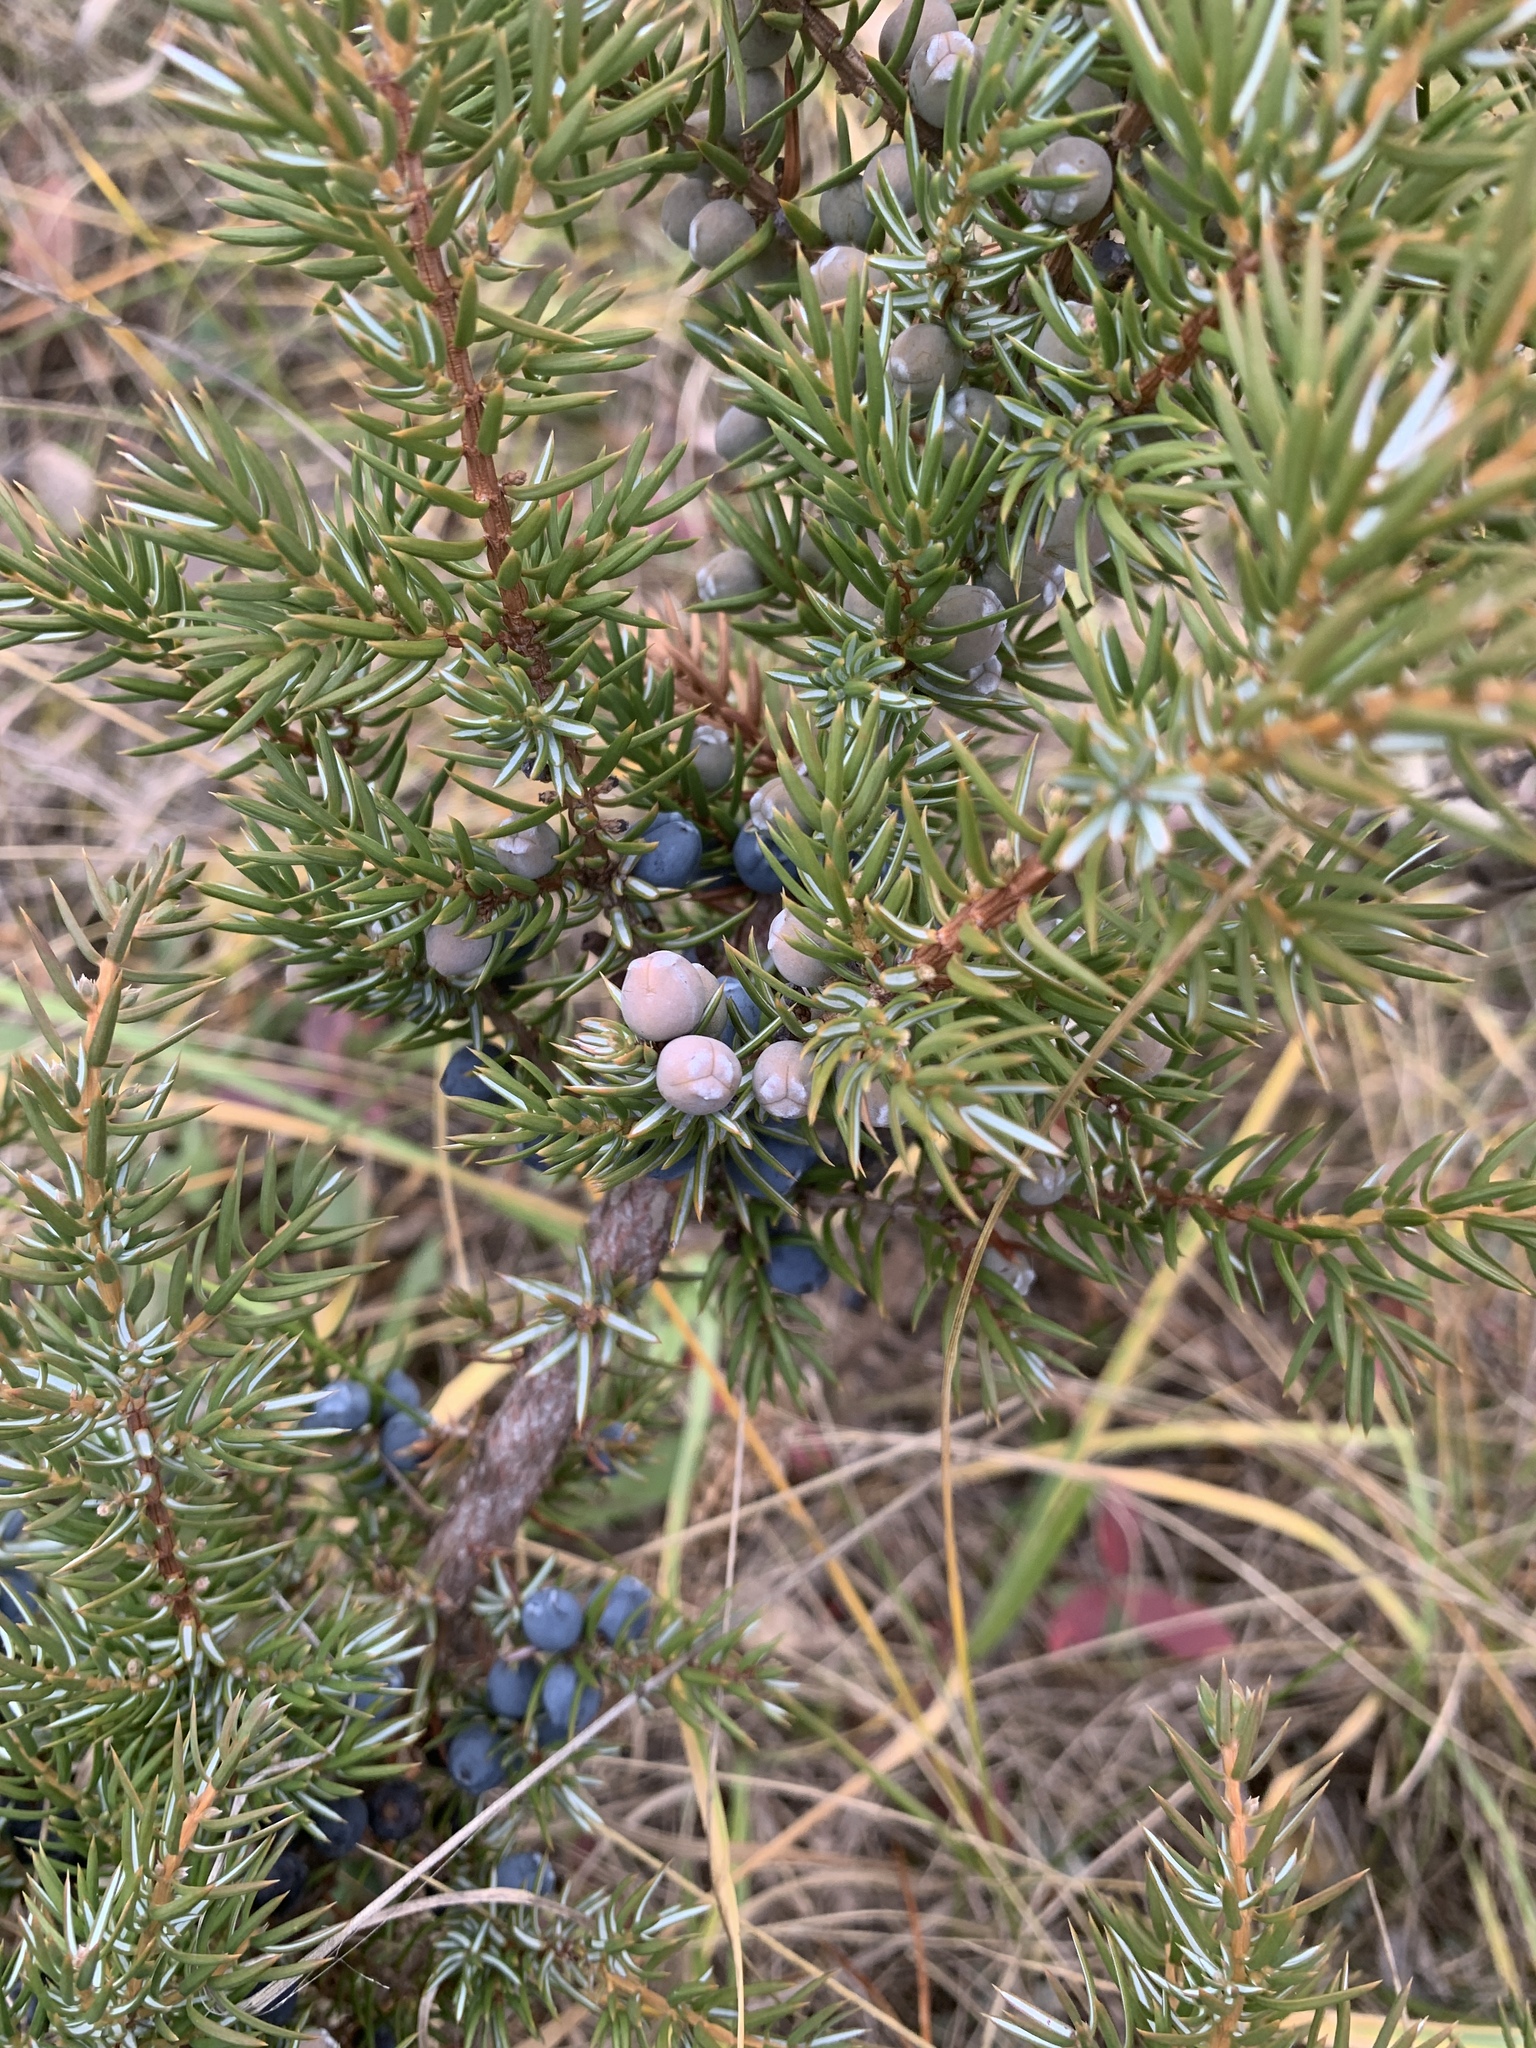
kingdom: Plantae
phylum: Tracheophyta
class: Pinopsida
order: Pinales
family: Cupressaceae
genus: Juniperus
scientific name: Juniperus communis
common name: Common juniper
